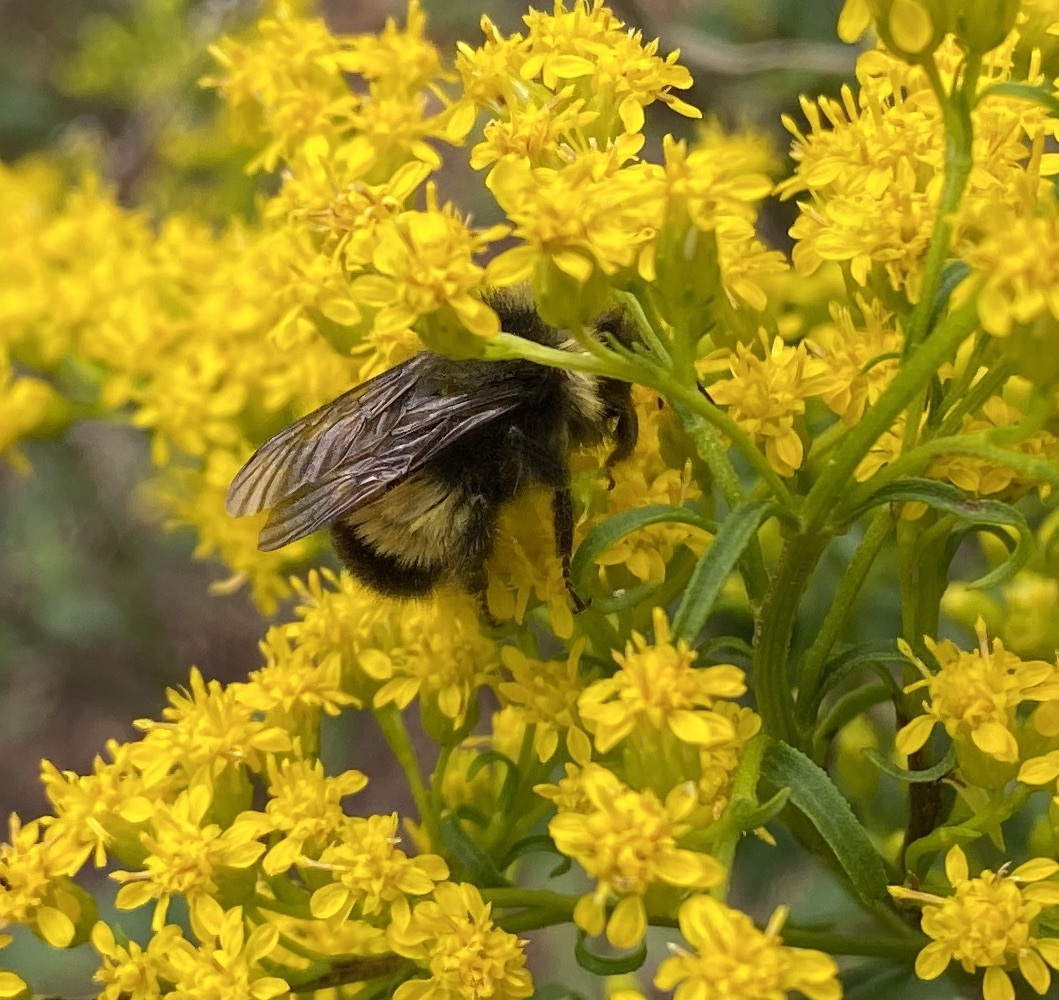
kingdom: Animalia
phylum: Arthropoda
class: Insecta
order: Hymenoptera
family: Apidae
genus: Bombus
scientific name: Bombus terricola
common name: Yellow-banded bumble bee
